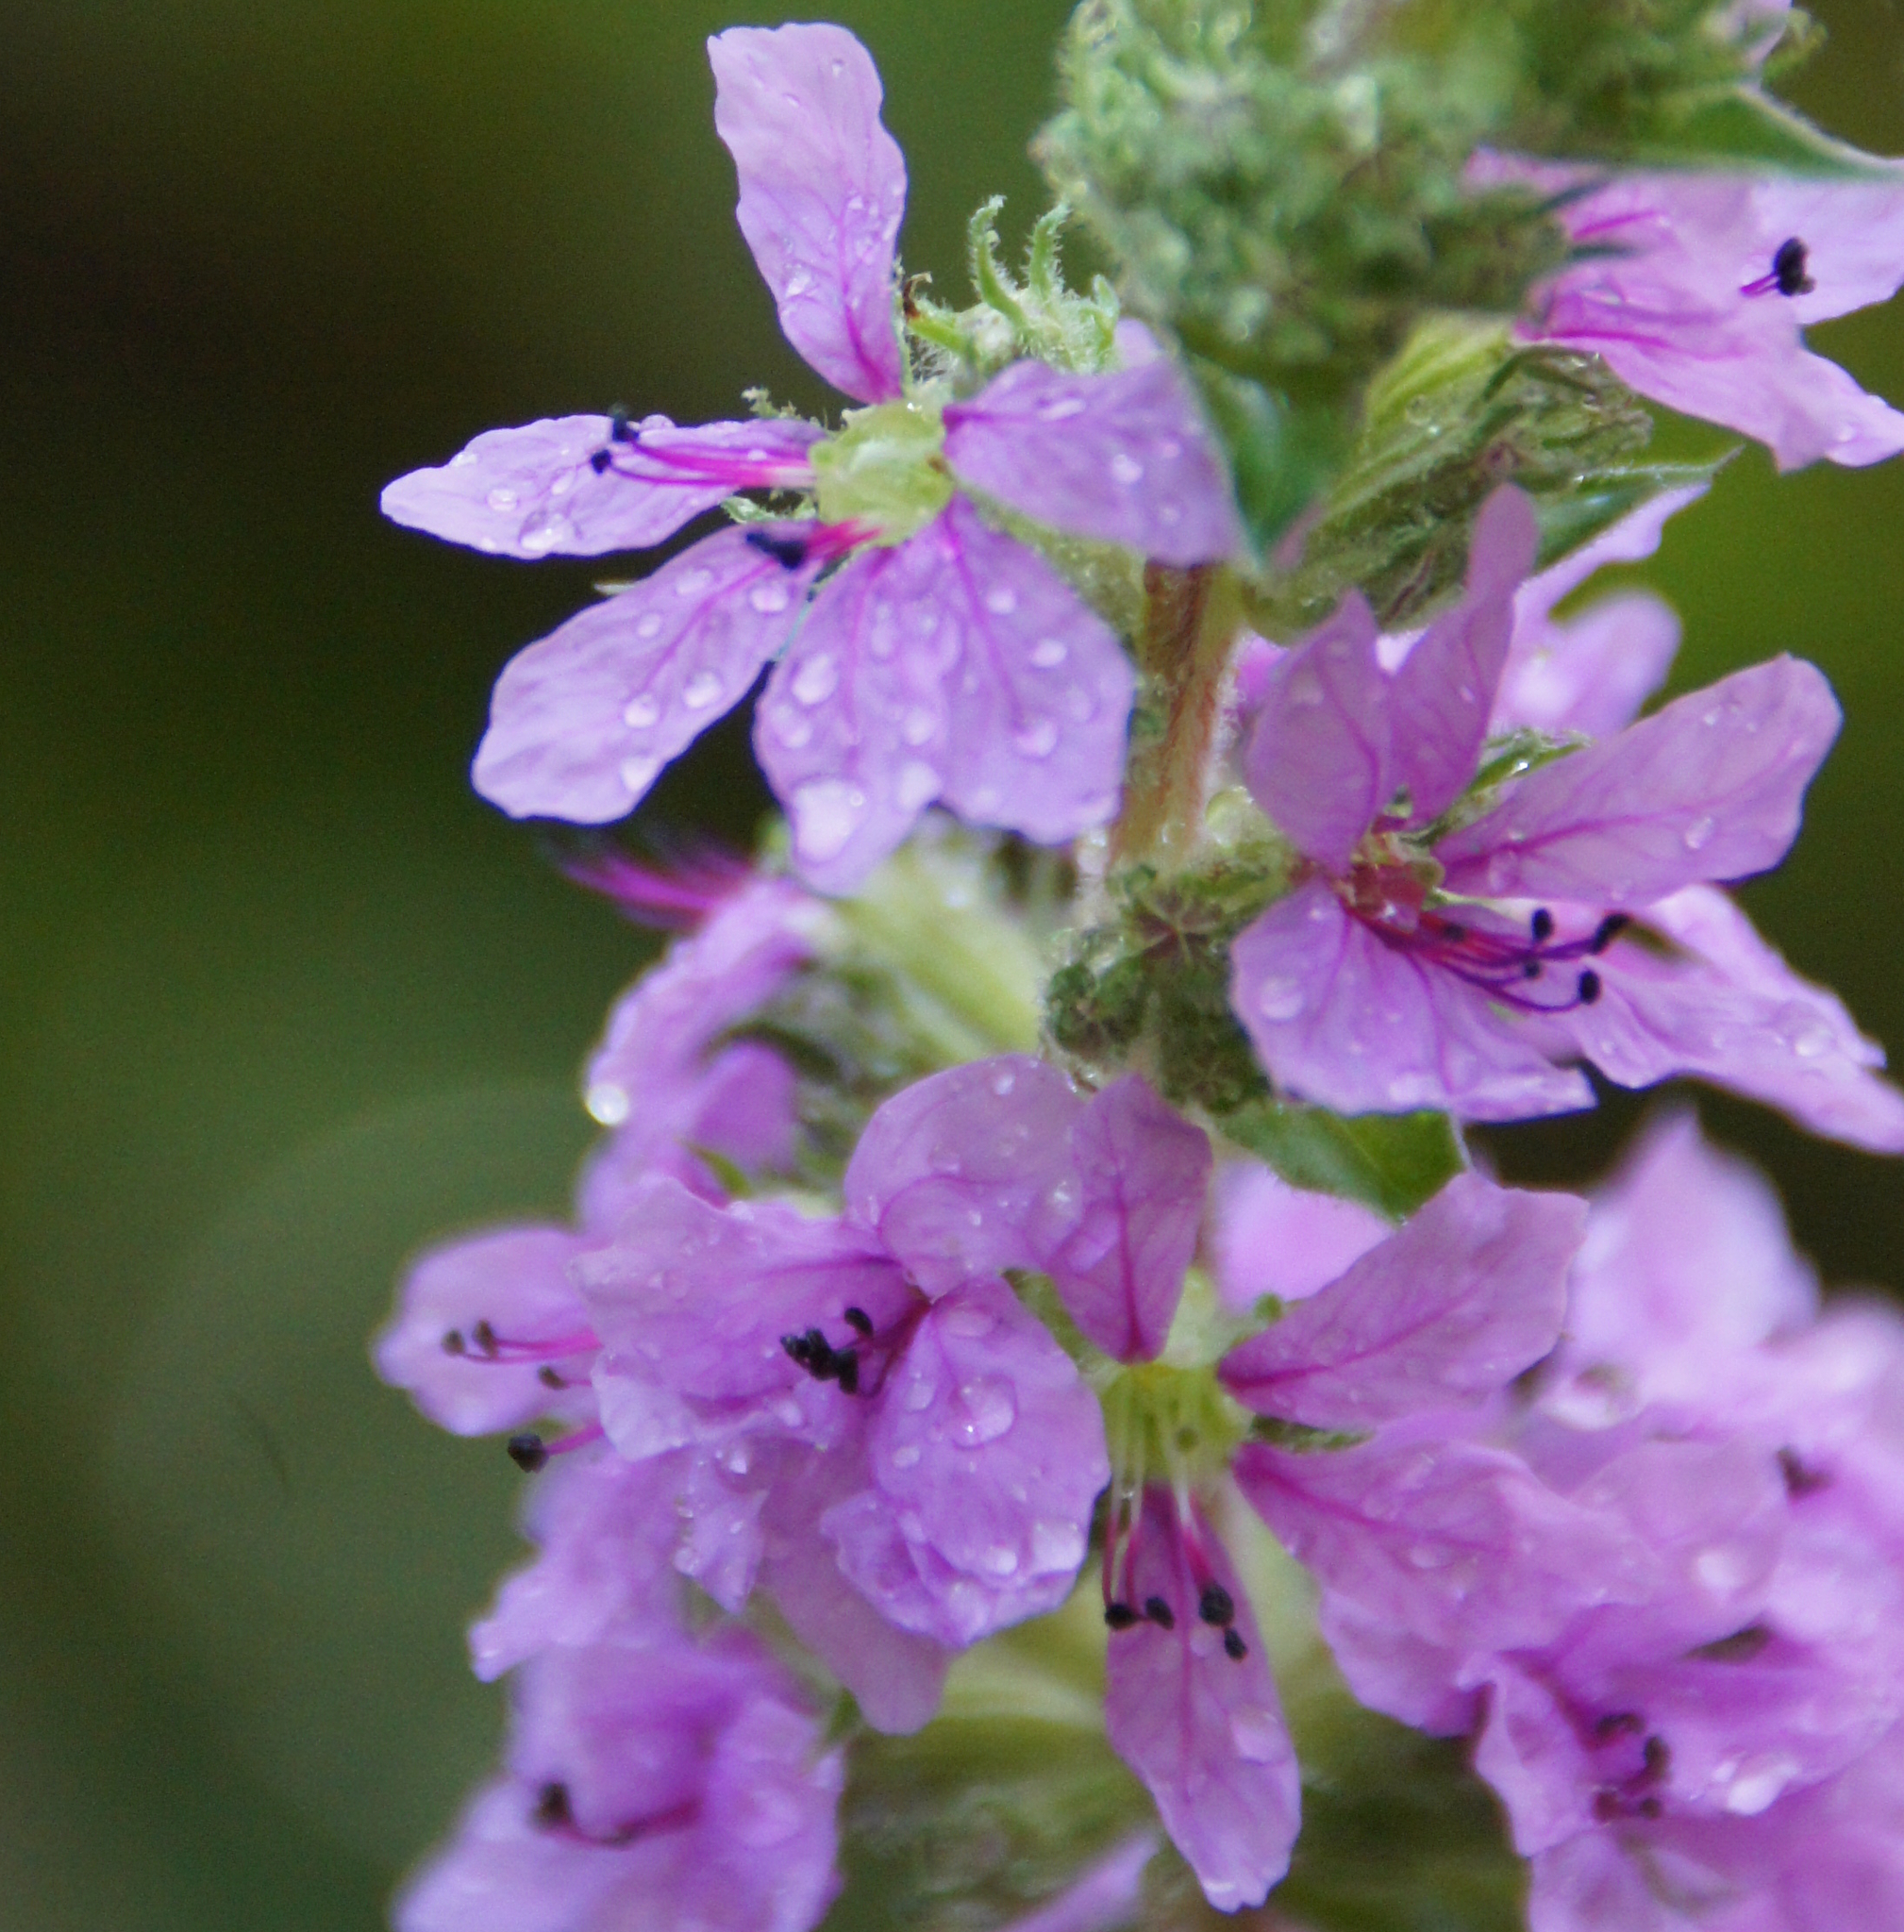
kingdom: Plantae
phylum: Tracheophyta
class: Magnoliopsida
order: Myrtales
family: Lythraceae
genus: Lythrum
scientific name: Lythrum salicaria
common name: Purple loosestrife
